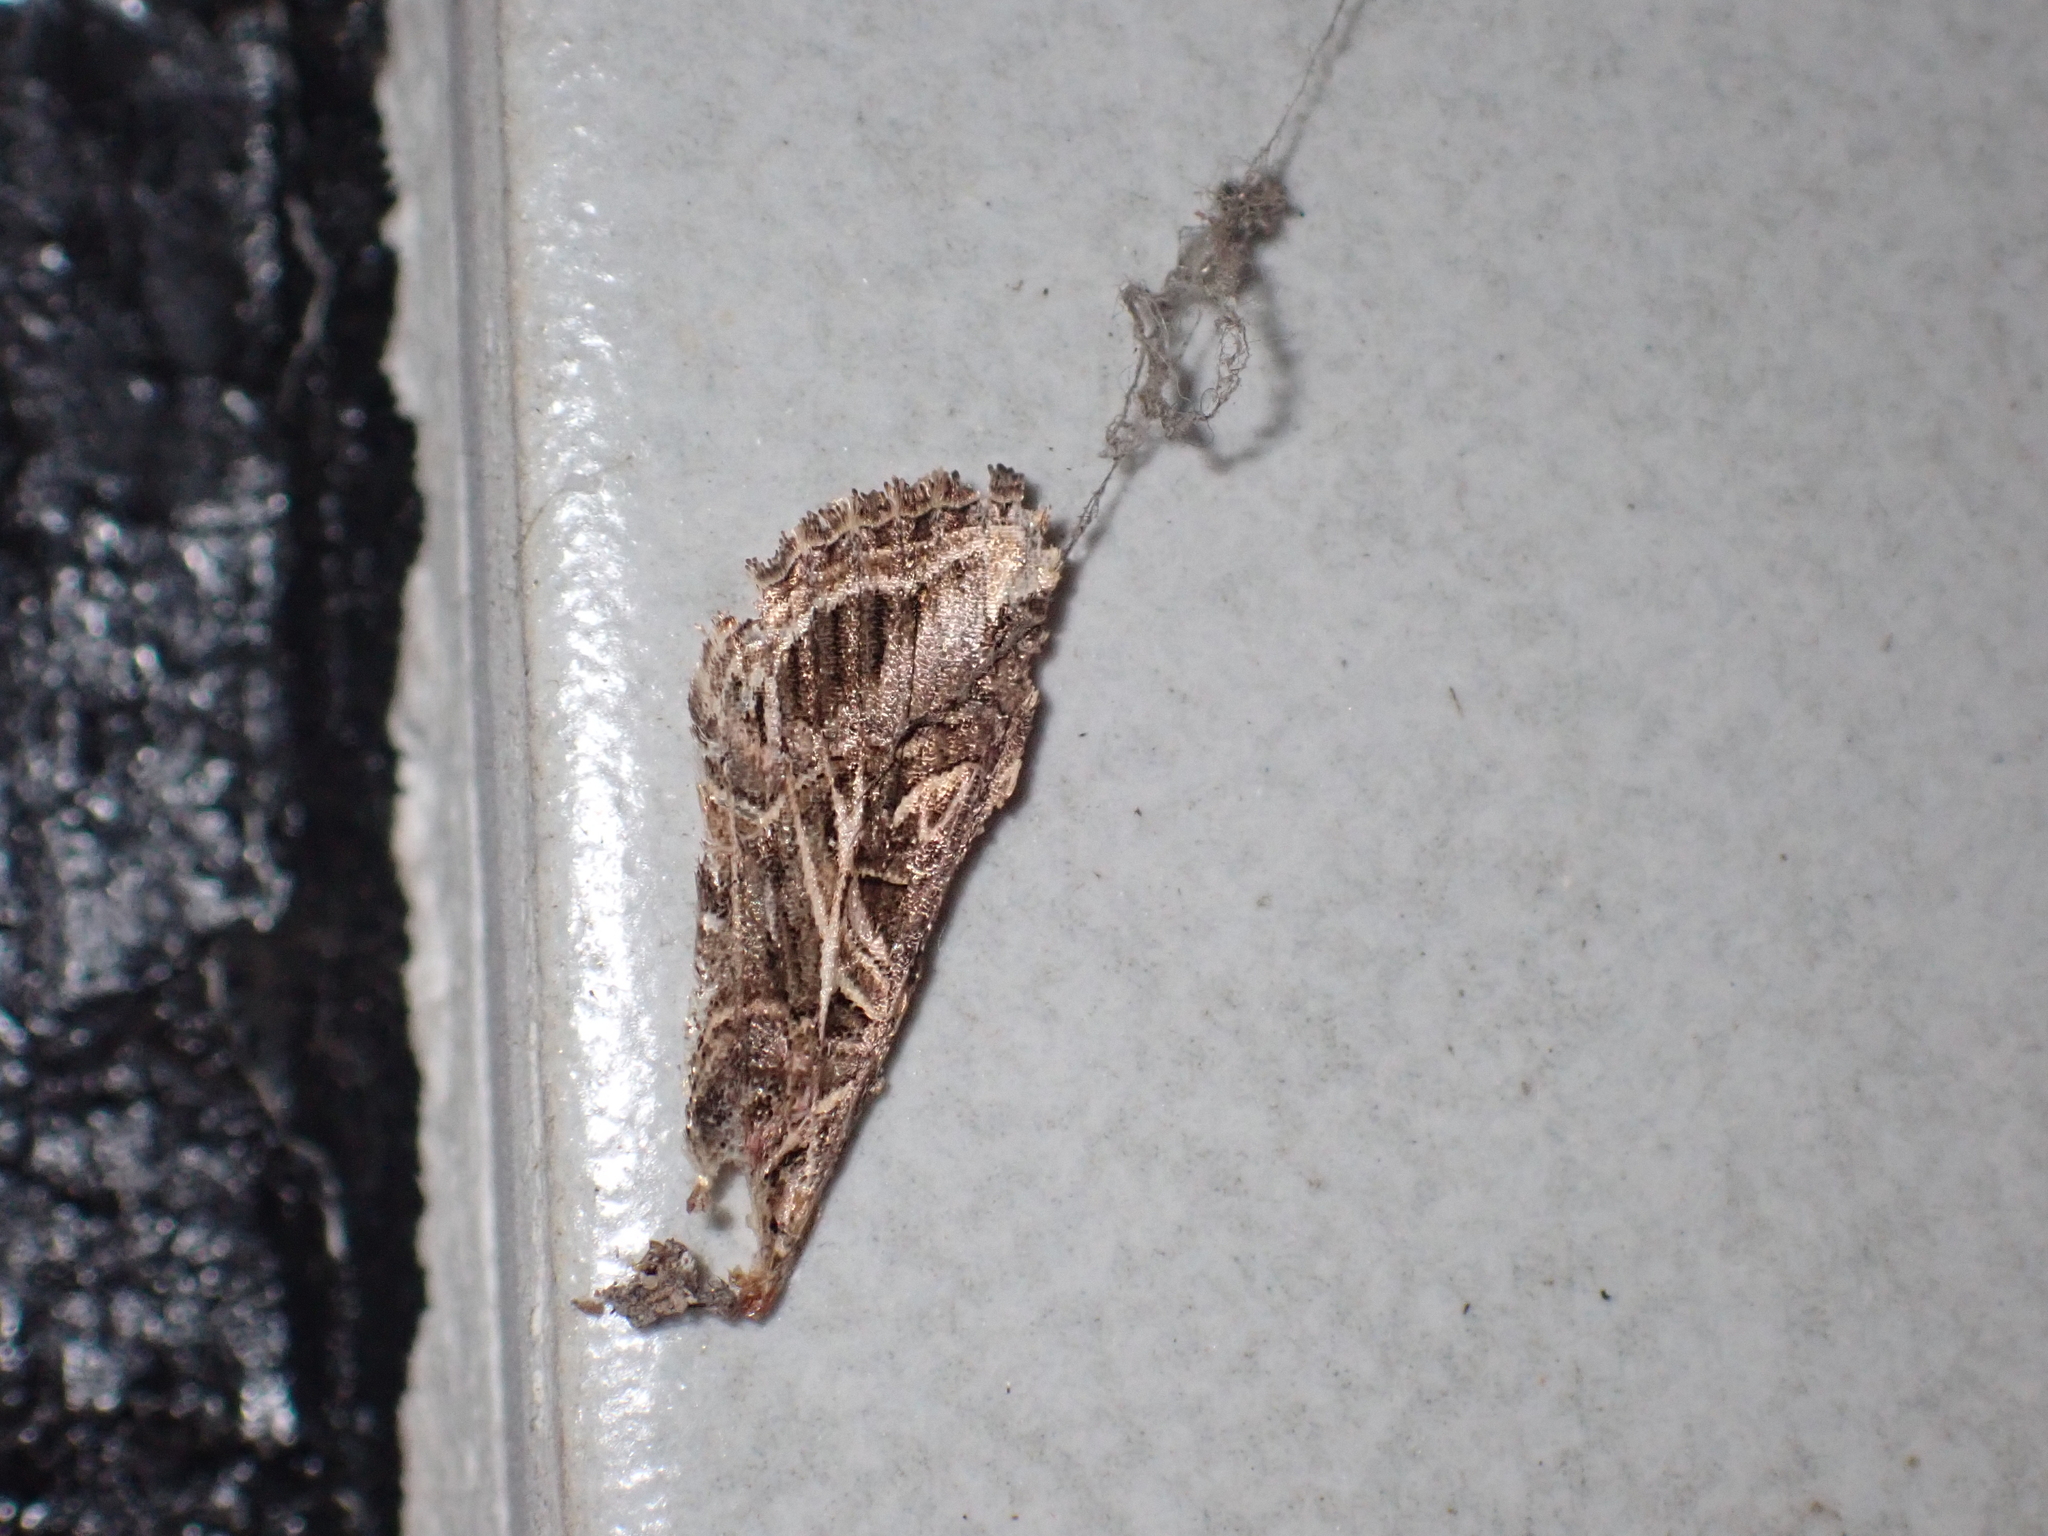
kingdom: Animalia
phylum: Arthropoda
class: Insecta
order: Lepidoptera
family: Noctuidae
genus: Spodoptera
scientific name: Spodoptera litura
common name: Asian cotton leafworm
